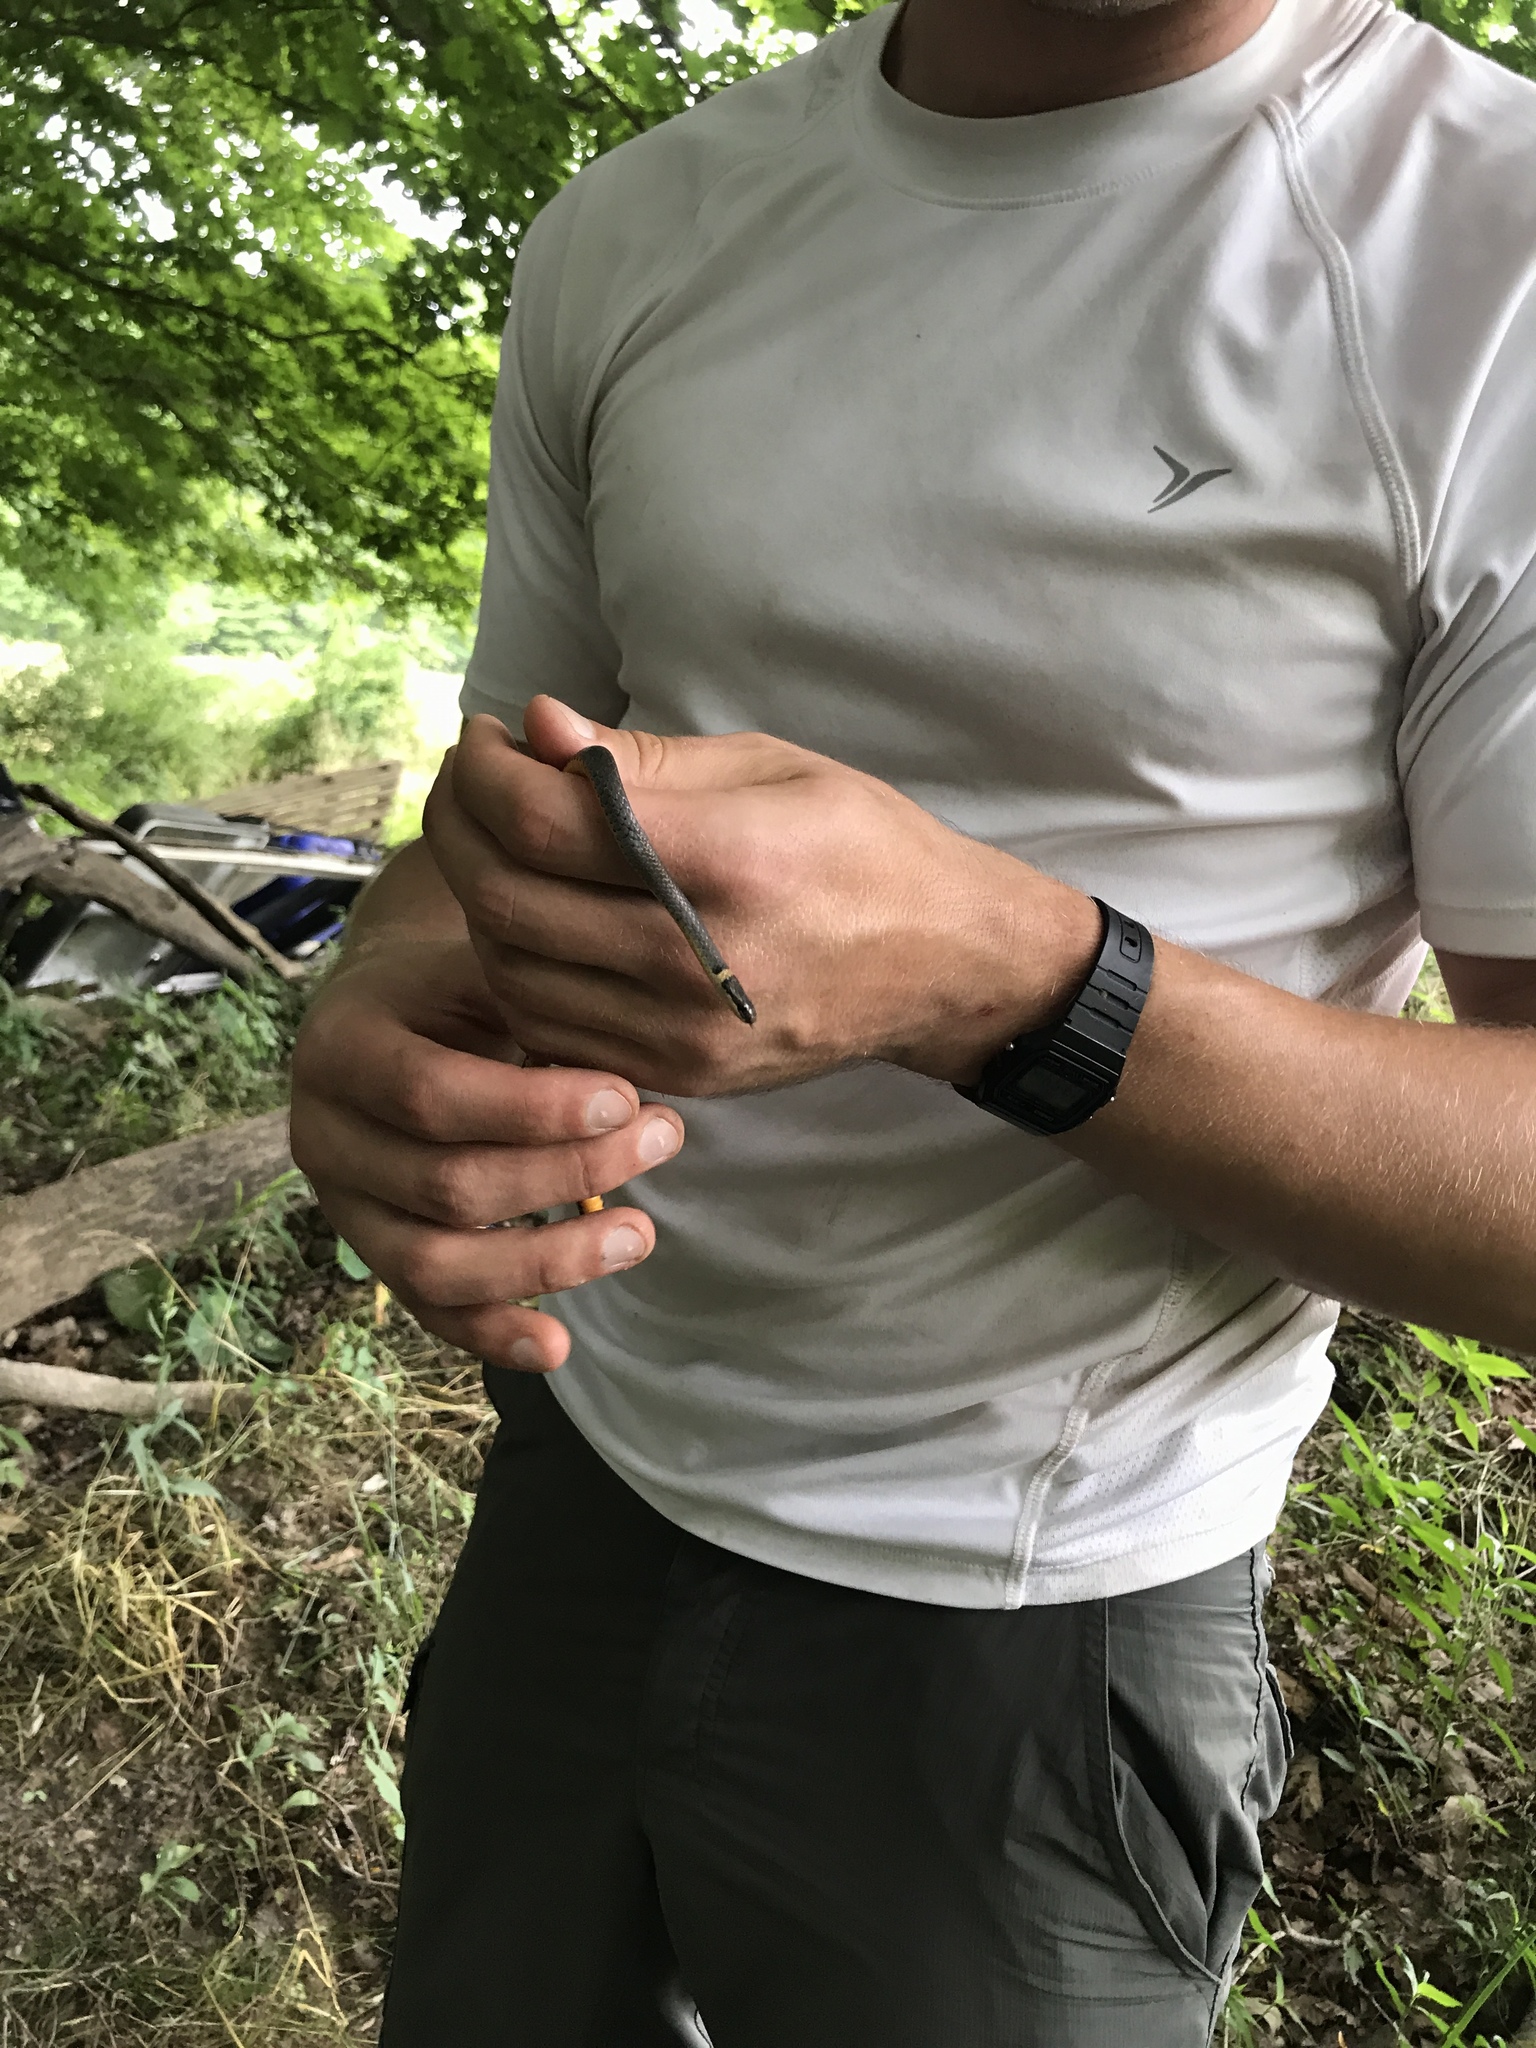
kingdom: Animalia
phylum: Chordata
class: Squamata
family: Colubridae
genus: Diadophis
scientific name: Diadophis punctatus
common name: Ringneck snake
